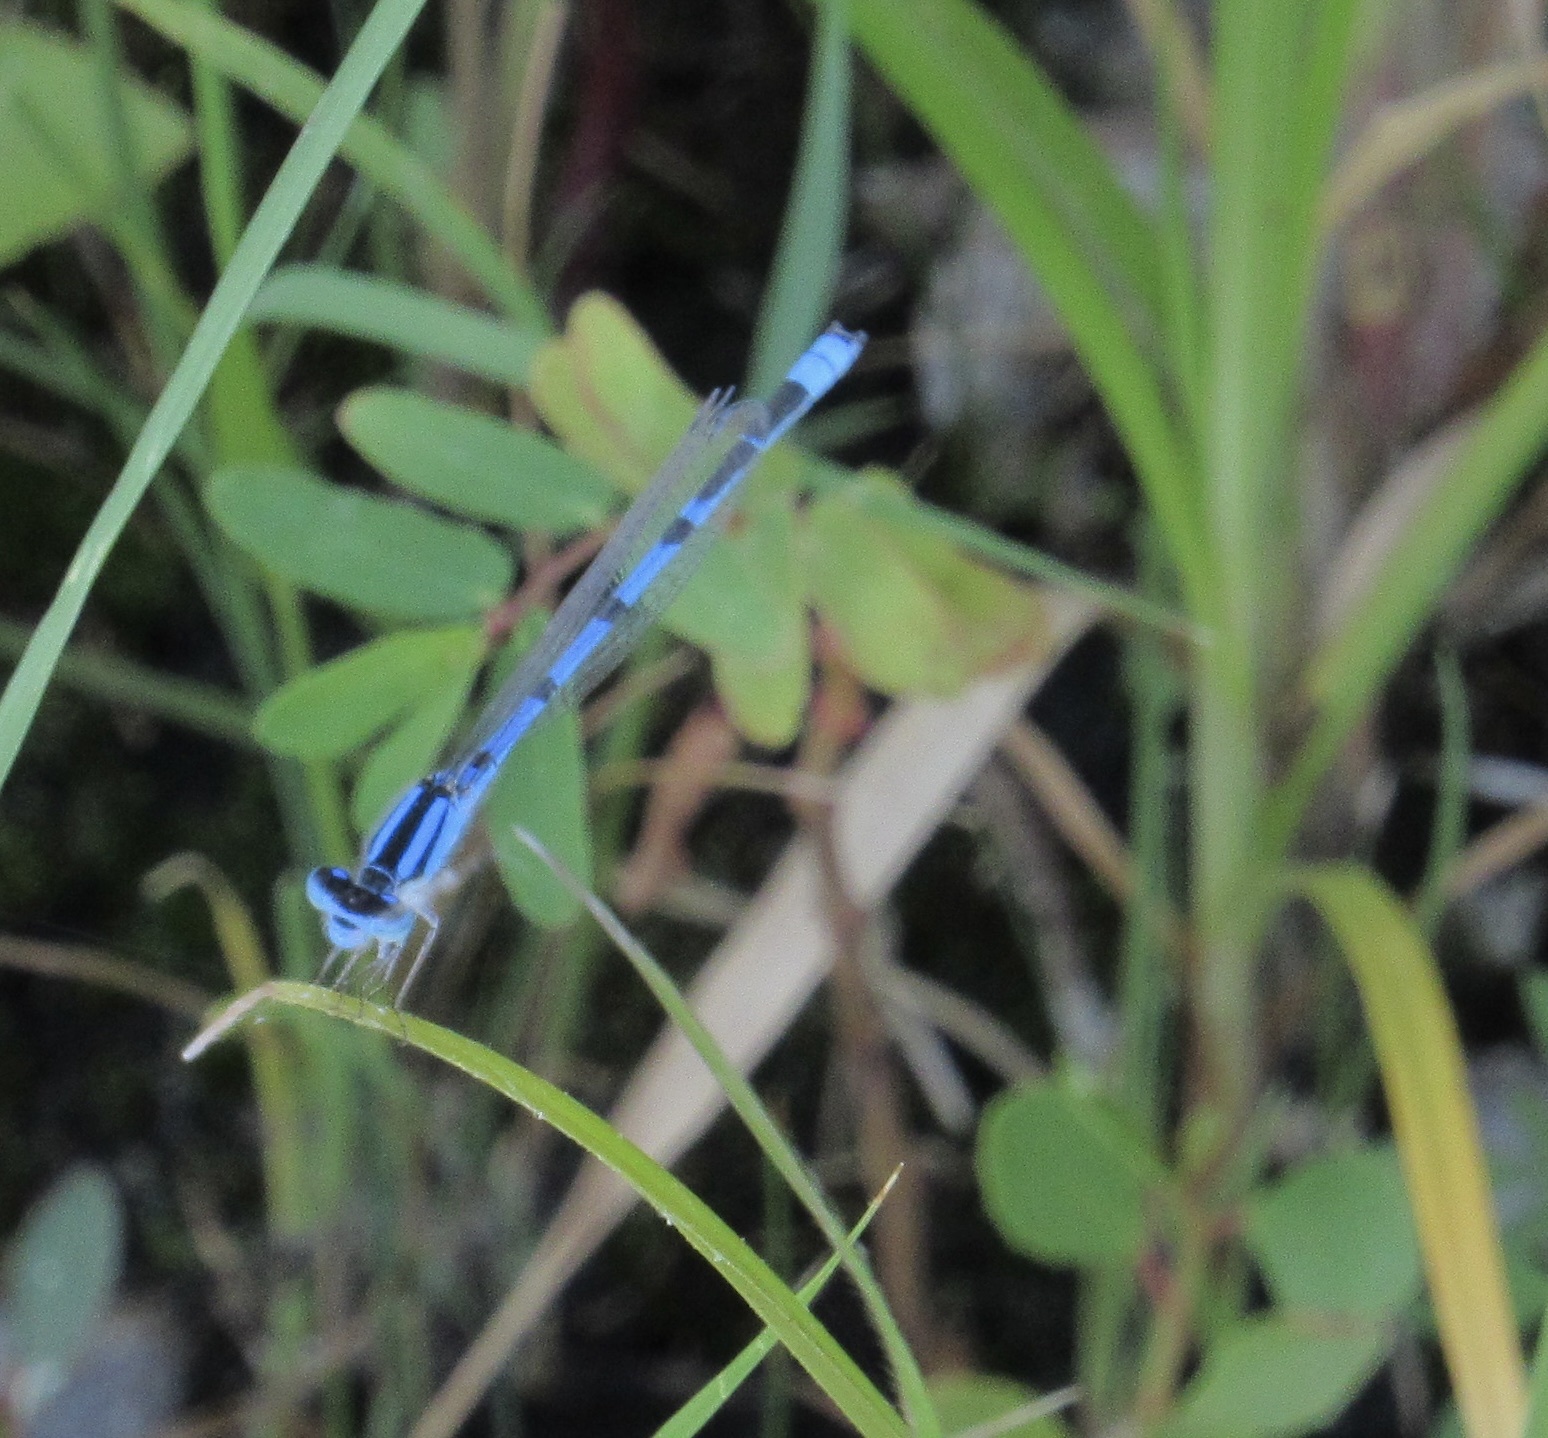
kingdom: Animalia
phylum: Arthropoda
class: Insecta
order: Odonata
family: Coenagrionidae
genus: Enallagma
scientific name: Enallagma civile
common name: Damselfly
